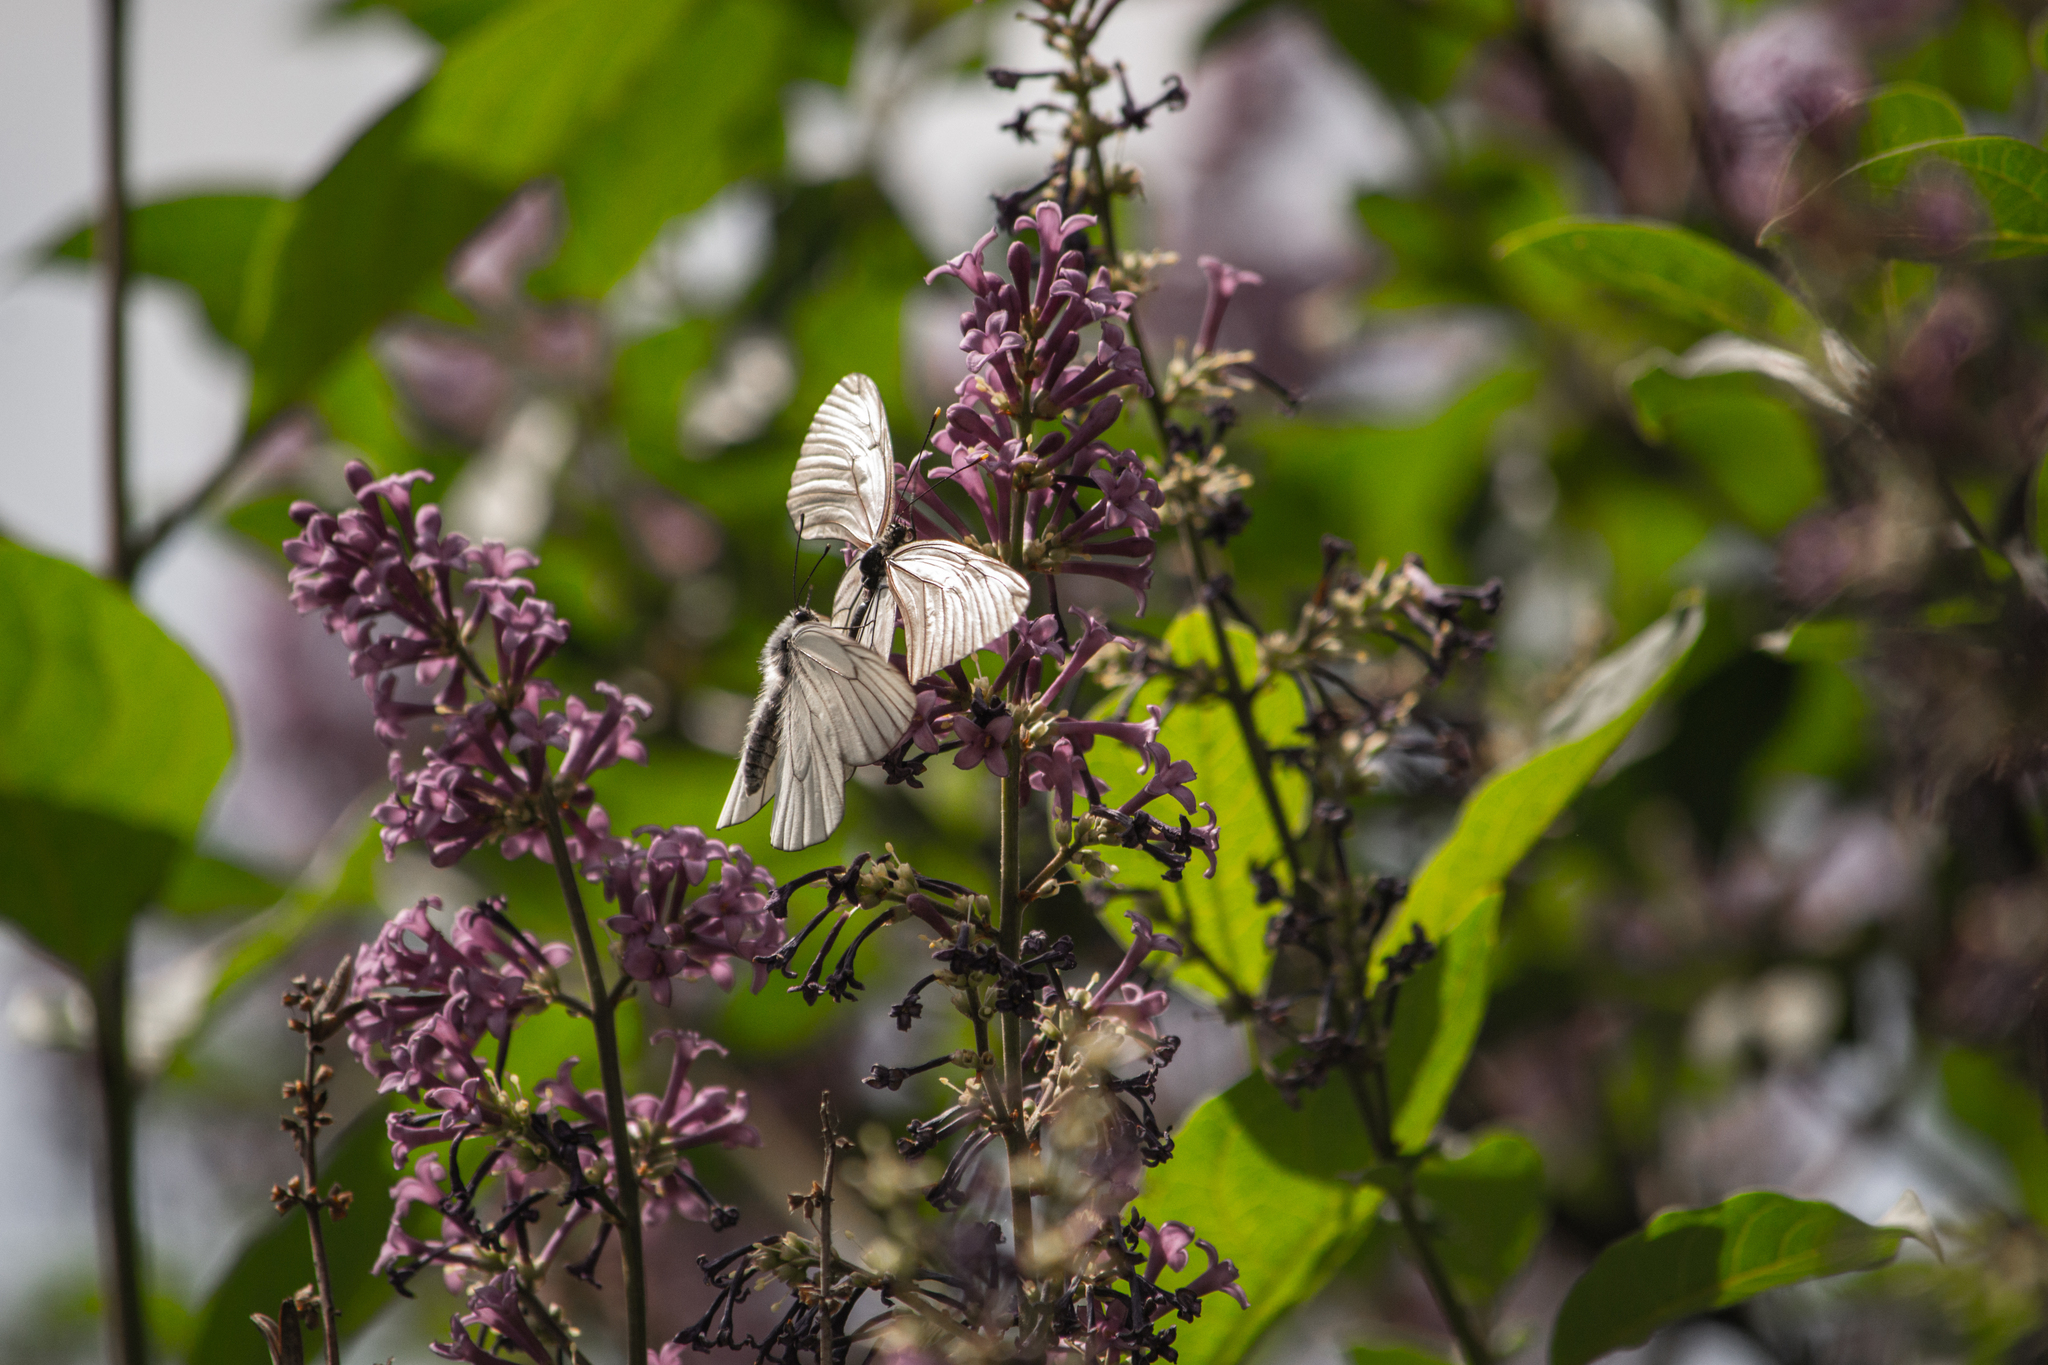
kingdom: Animalia
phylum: Arthropoda
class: Insecta
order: Lepidoptera
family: Pieridae
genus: Aporia
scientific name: Aporia crataegi
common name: Black-veined white
